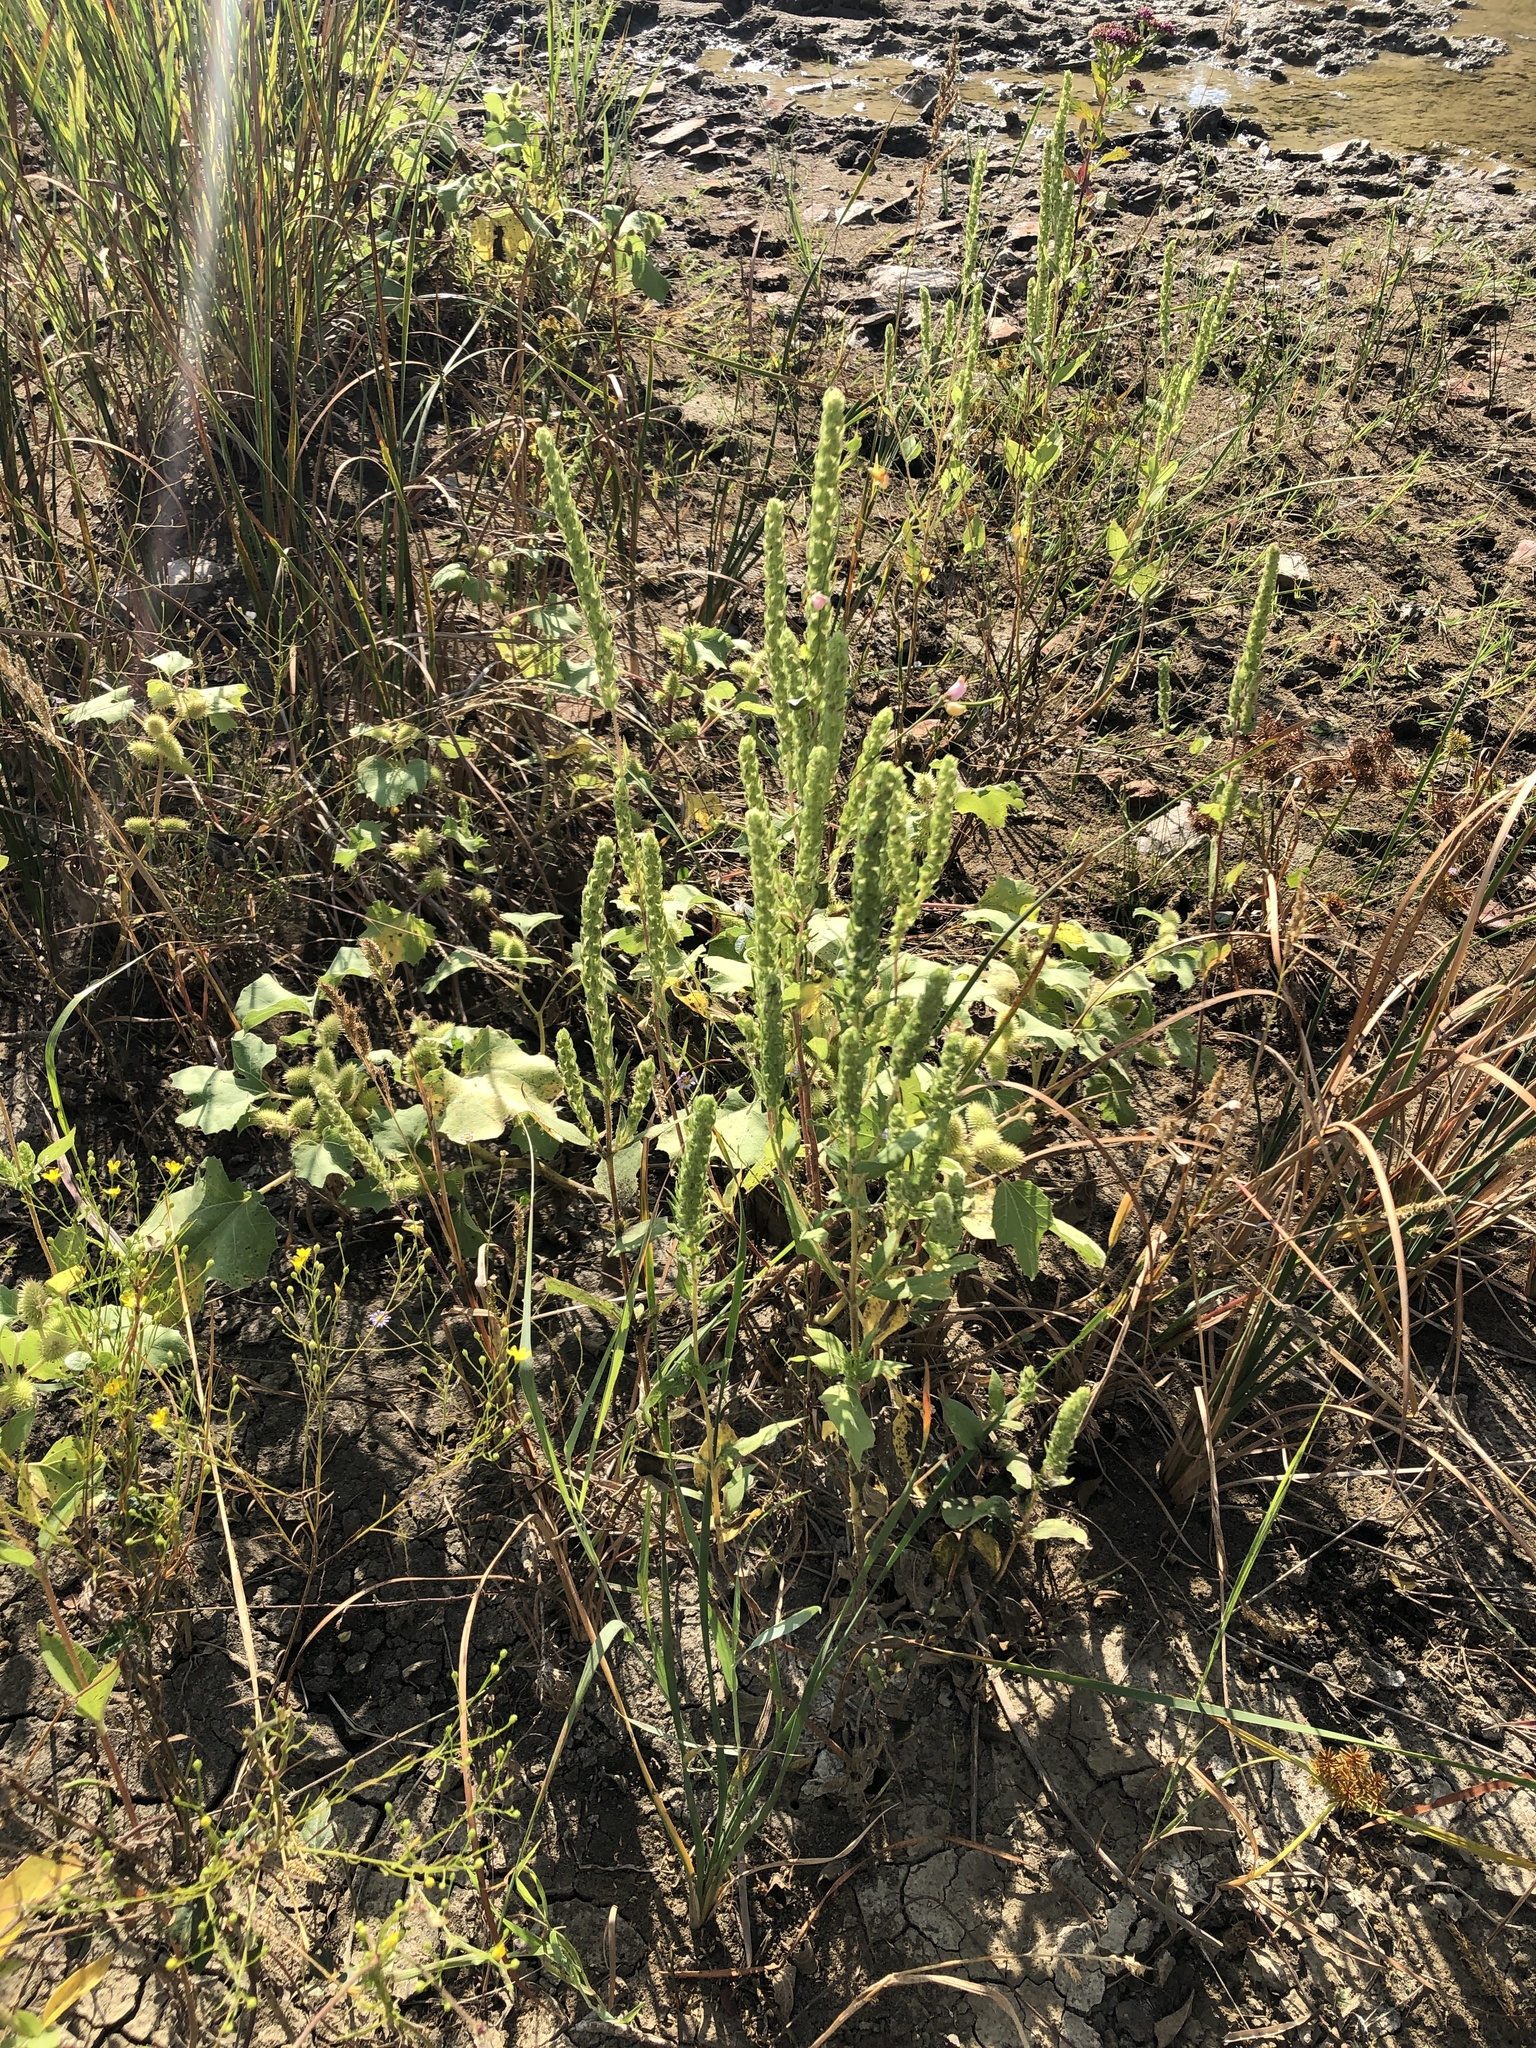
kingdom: Plantae
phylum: Tracheophyta
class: Magnoliopsida
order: Asterales
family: Asteraceae
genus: Iva
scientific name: Iva annua
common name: Marsh-elder
